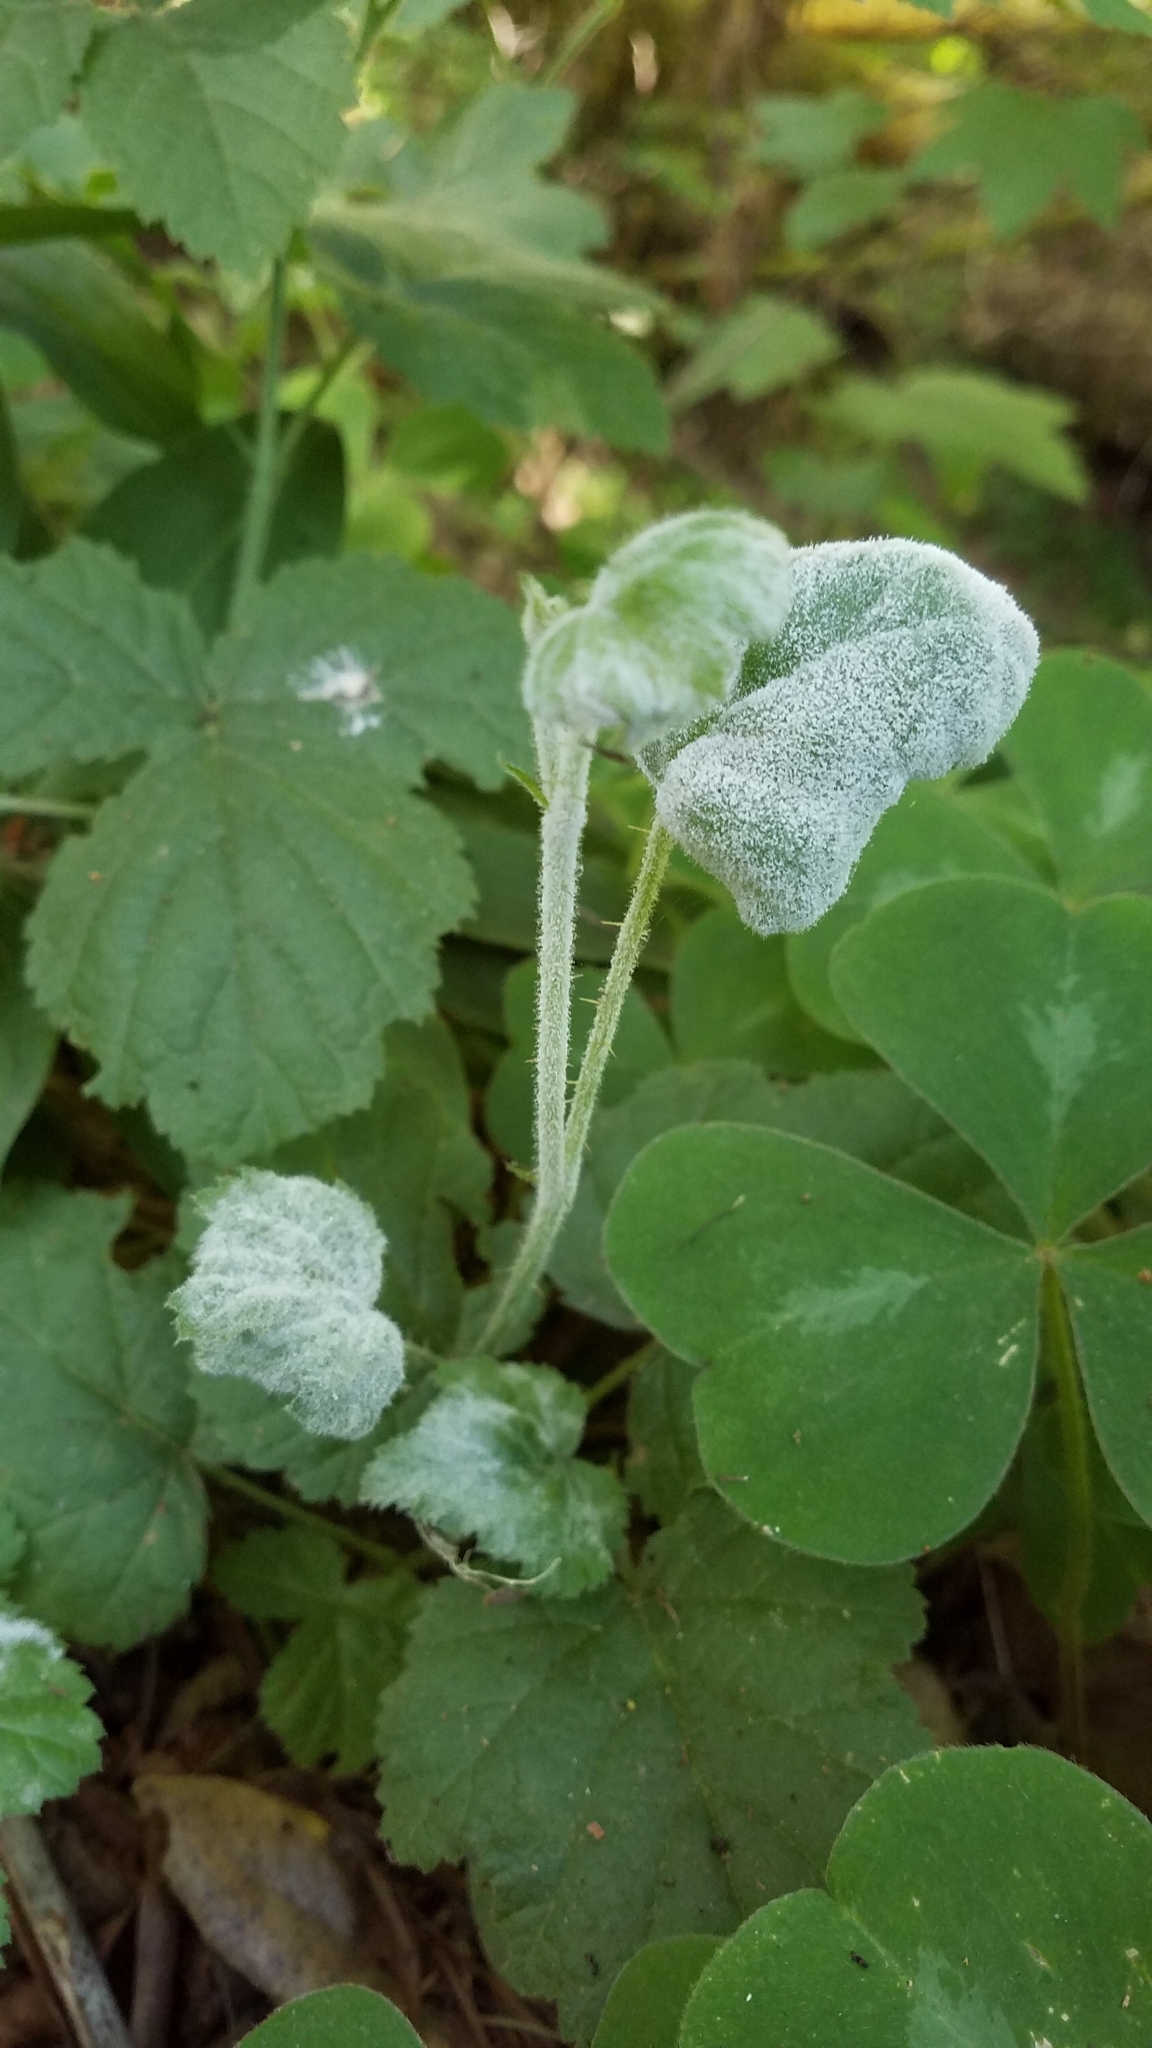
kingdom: Fungi
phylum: Ascomycota
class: Leotiomycetes
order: Helotiales
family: Erysiphaceae
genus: Podosphaera
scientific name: Podosphaera aphanis
